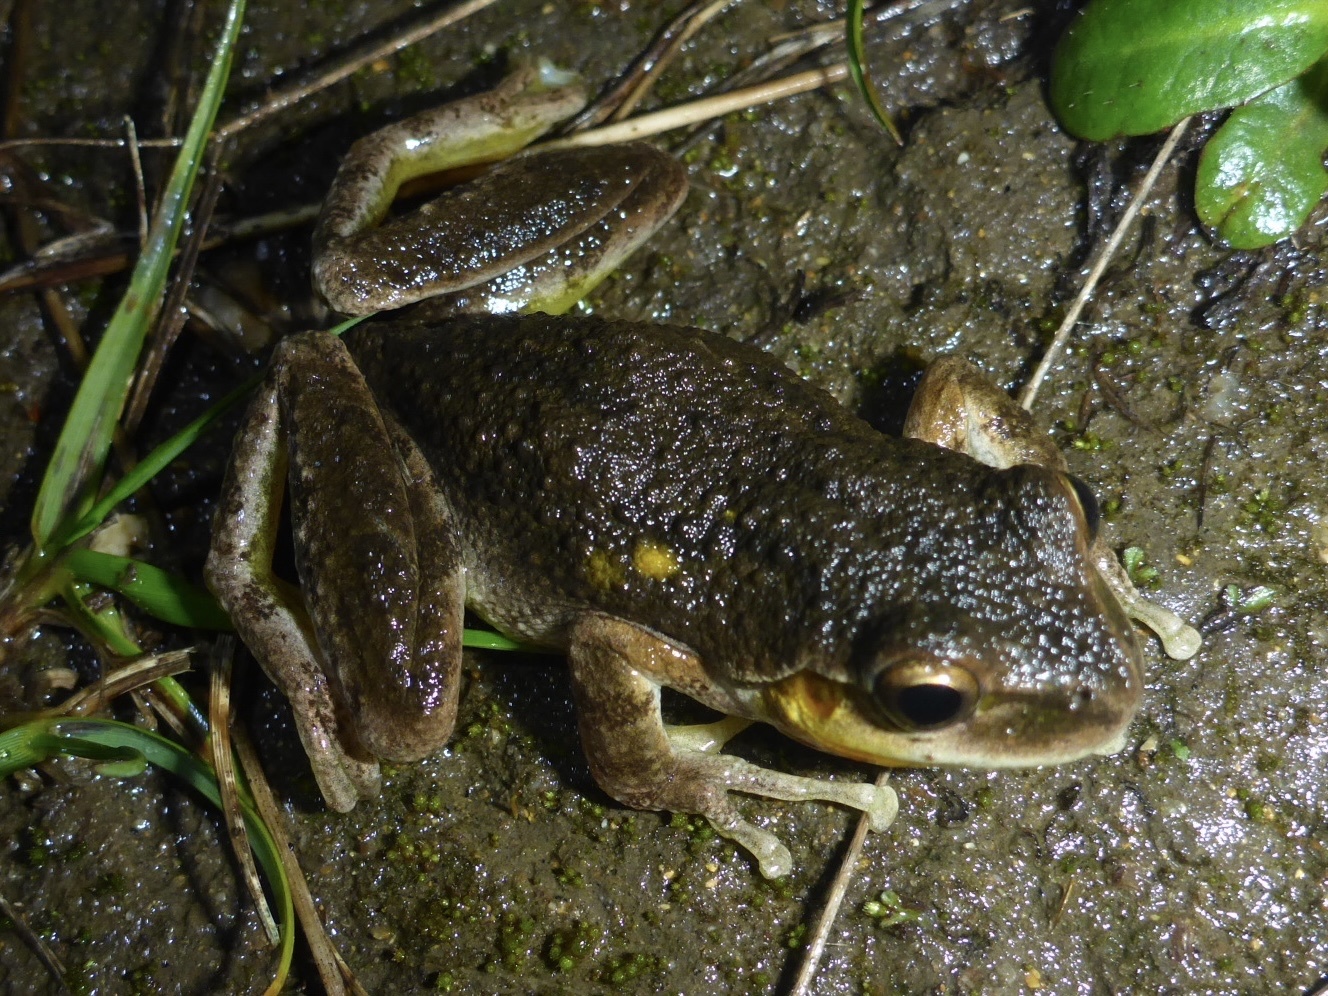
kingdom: Animalia
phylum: Chordata
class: Amphibia
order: Anura
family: Hylidae
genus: Pseudacris
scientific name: Pseudacris regilla
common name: Pacific chorus frog
